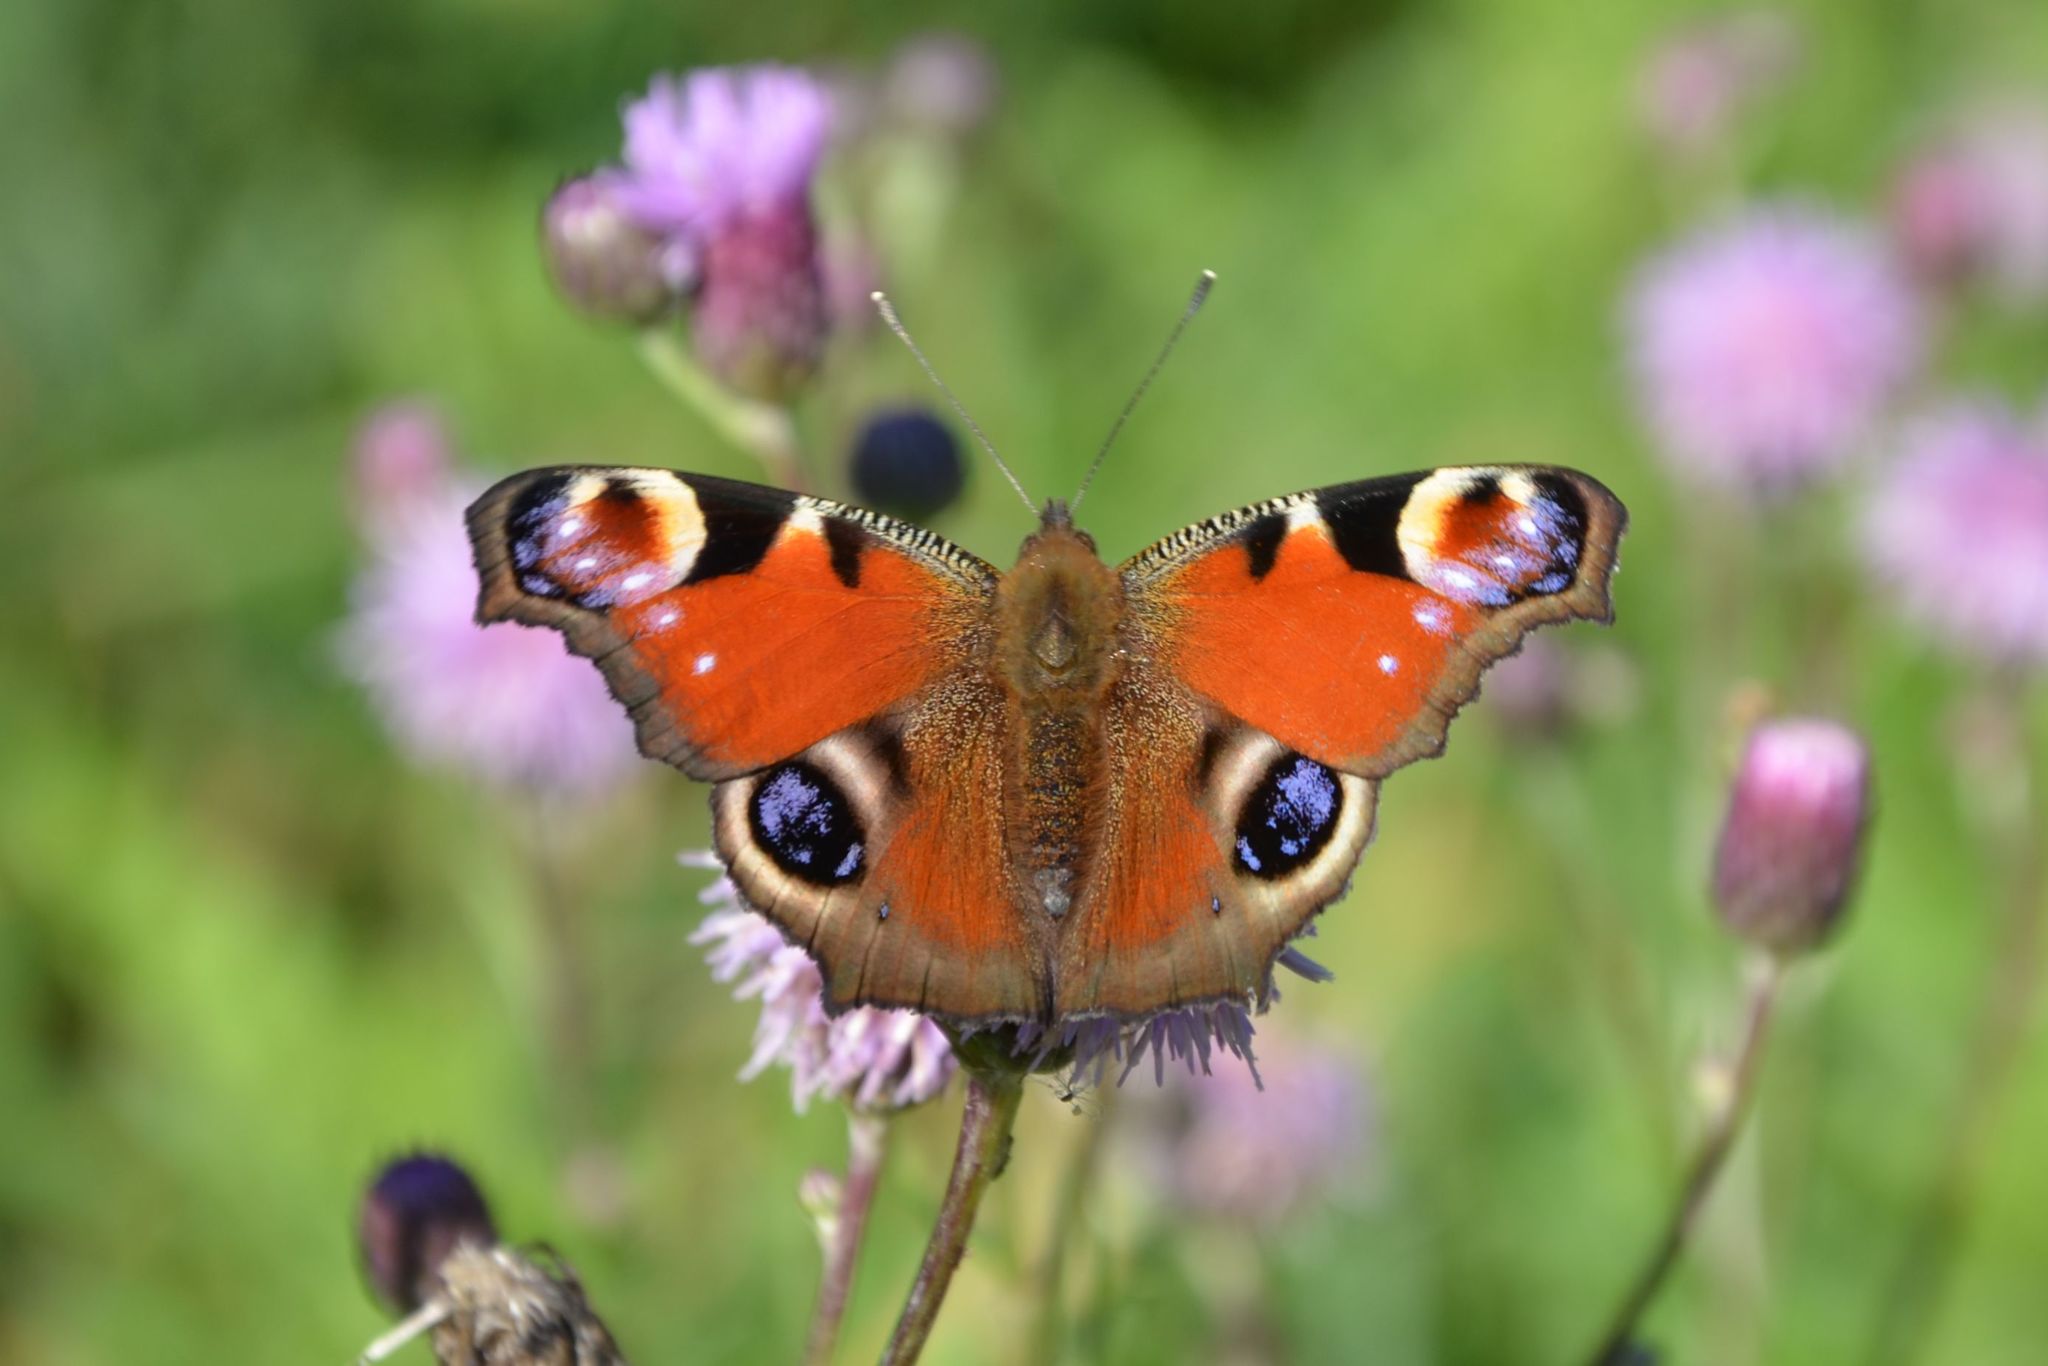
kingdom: Animalia
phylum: Arthropoda
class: Insecta
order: Lepidoptera
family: Nymphalidae
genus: Aglais
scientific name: Aglais io
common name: Peacock
